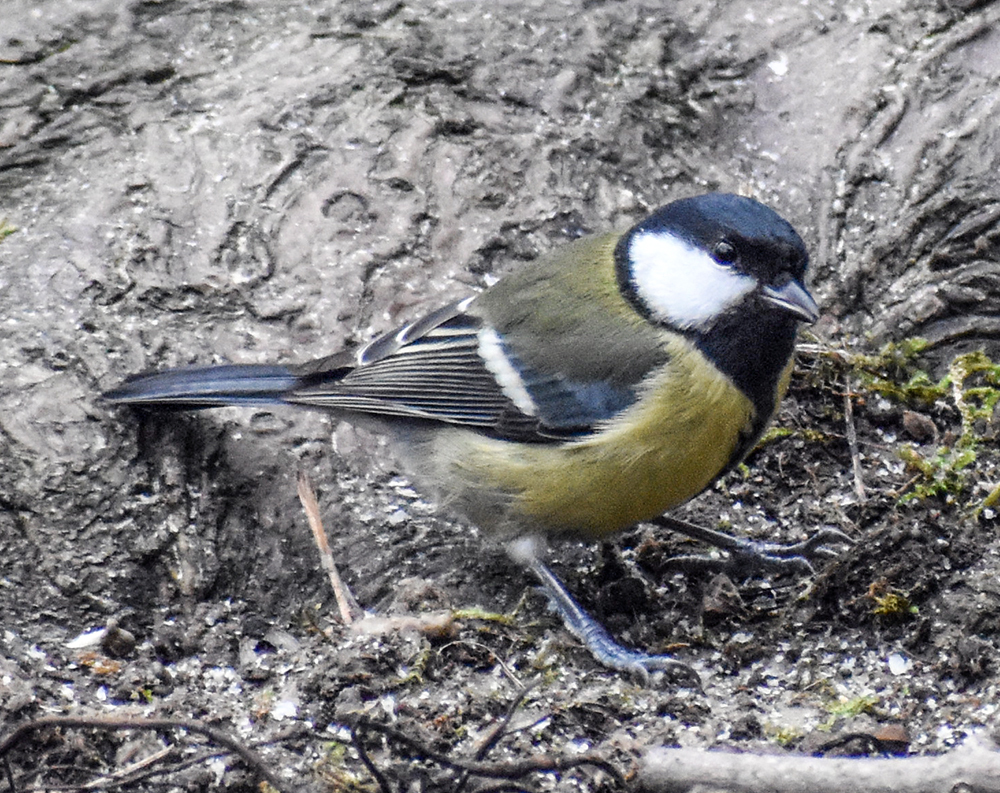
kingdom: Animalia
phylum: Chordata
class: Aves
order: Passeriformes
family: Paridae
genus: Parus
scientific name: Parus major
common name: Great tit
